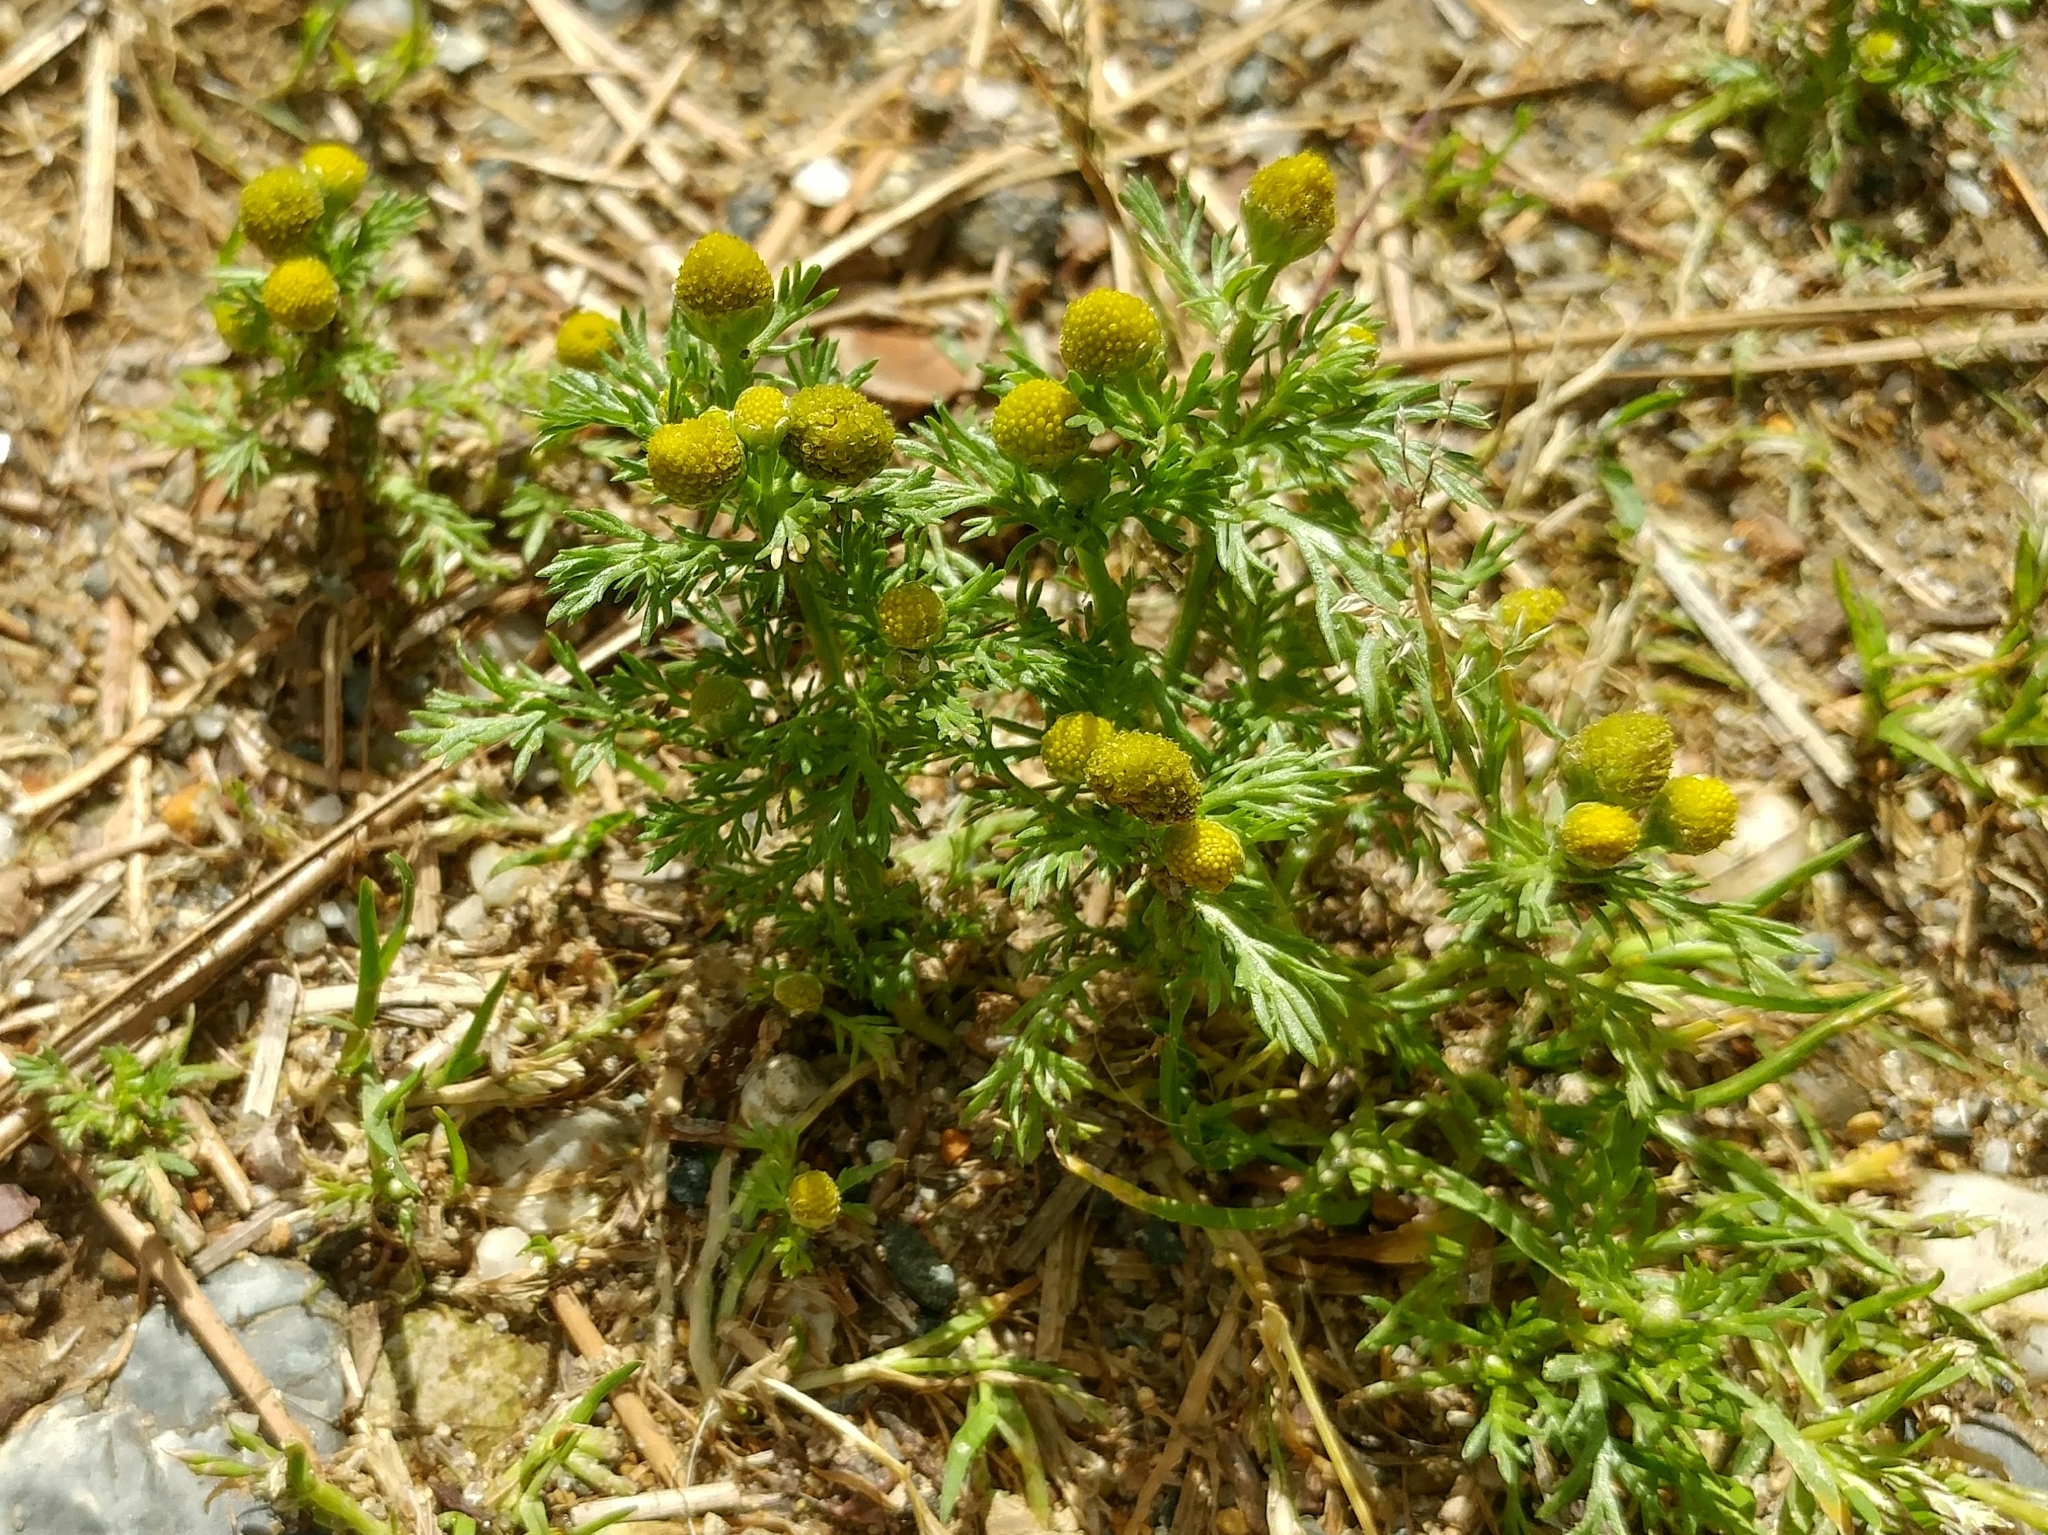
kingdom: Plantae
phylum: Tracheophyta
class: Magnoliopsida
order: Asterales
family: Asteraceae
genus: Matricaria
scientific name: Matricaria discoidea
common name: Disc mayweed
